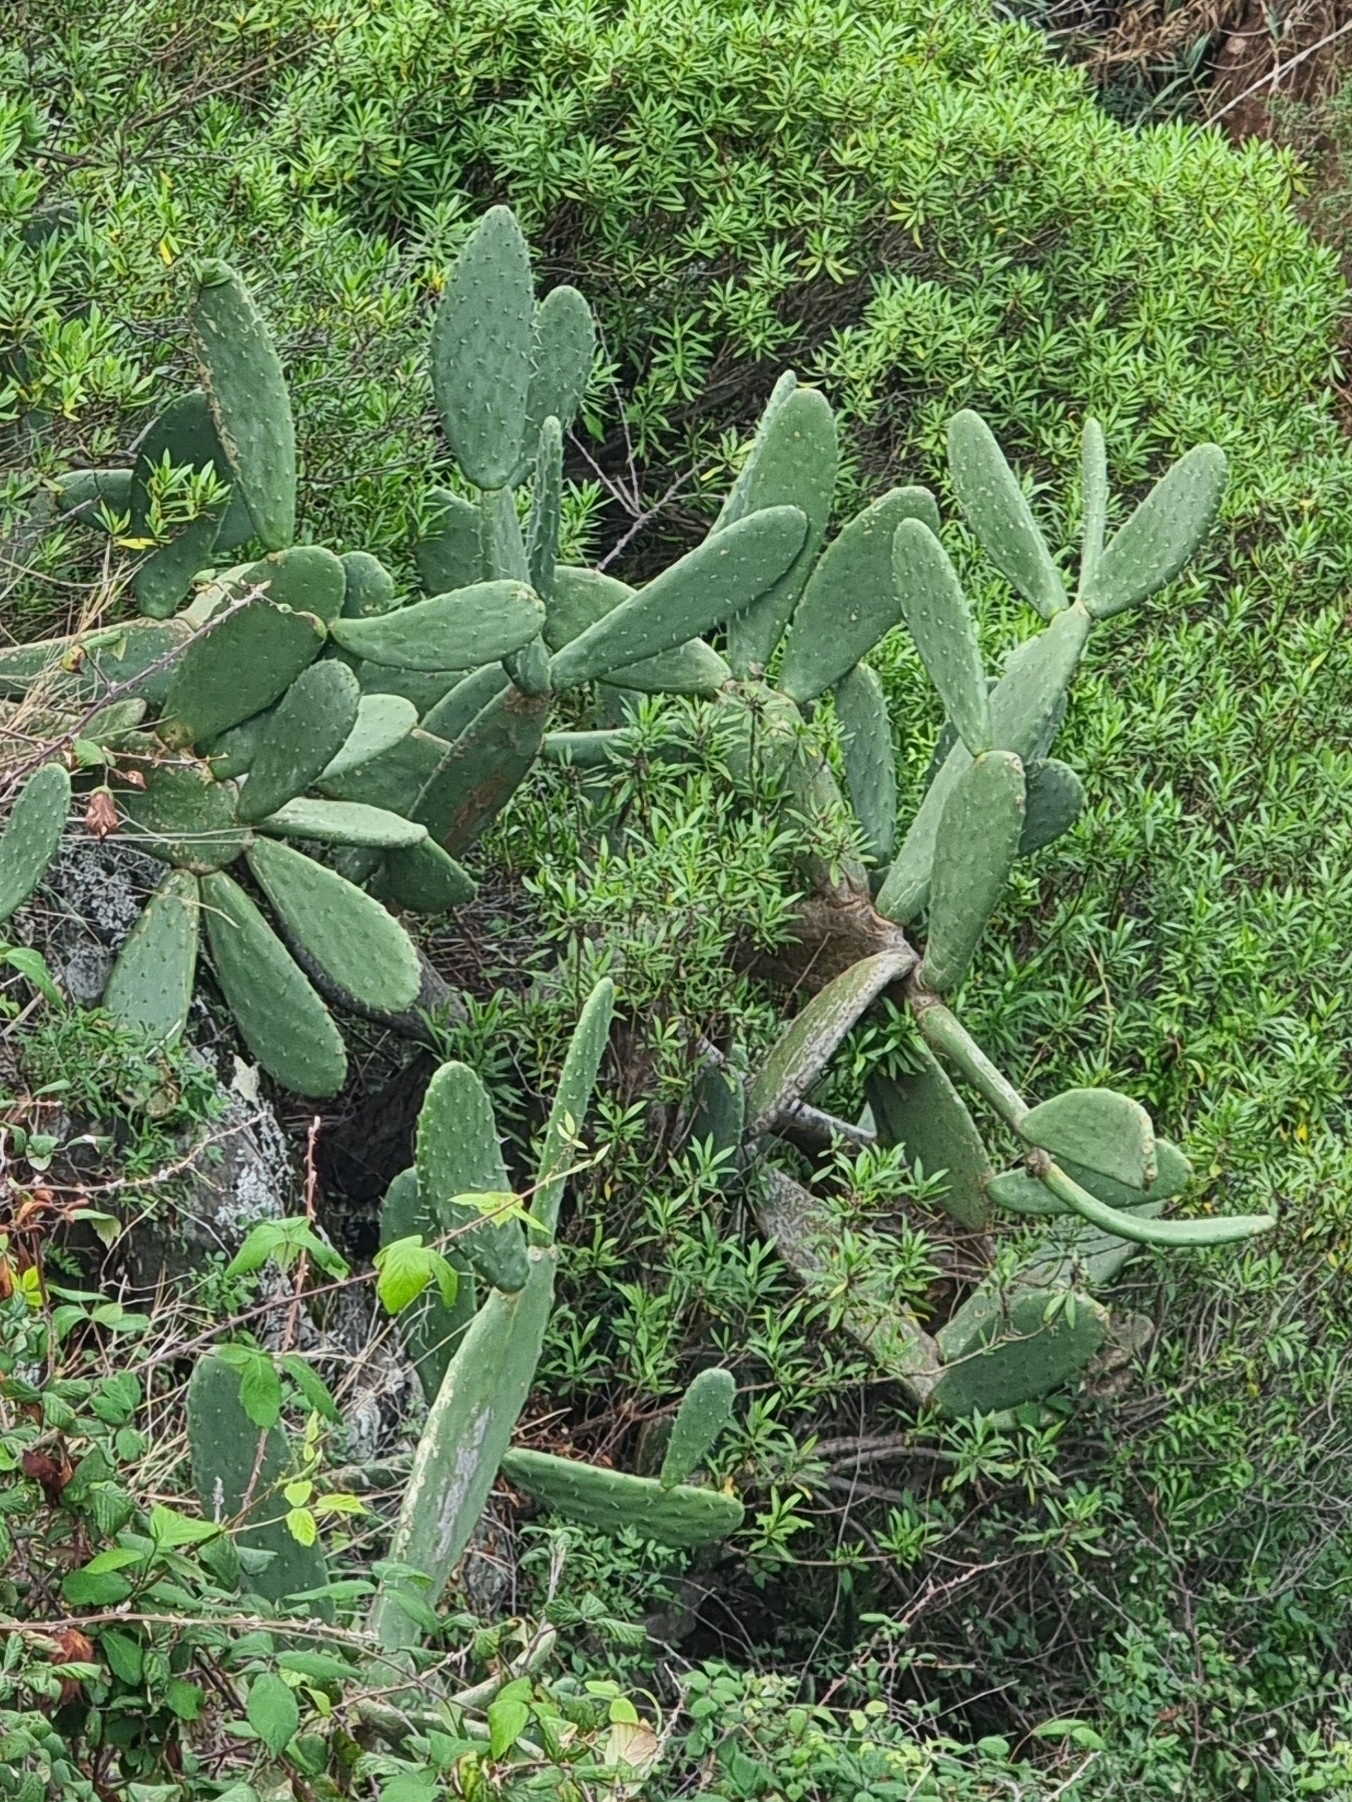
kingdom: Plantae
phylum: Tracheophyta
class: Magnoliopsida
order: Caryophyllales
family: Cactaceae
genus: Opuntia
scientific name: Opuntia ficus-indica
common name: Barbary fig
